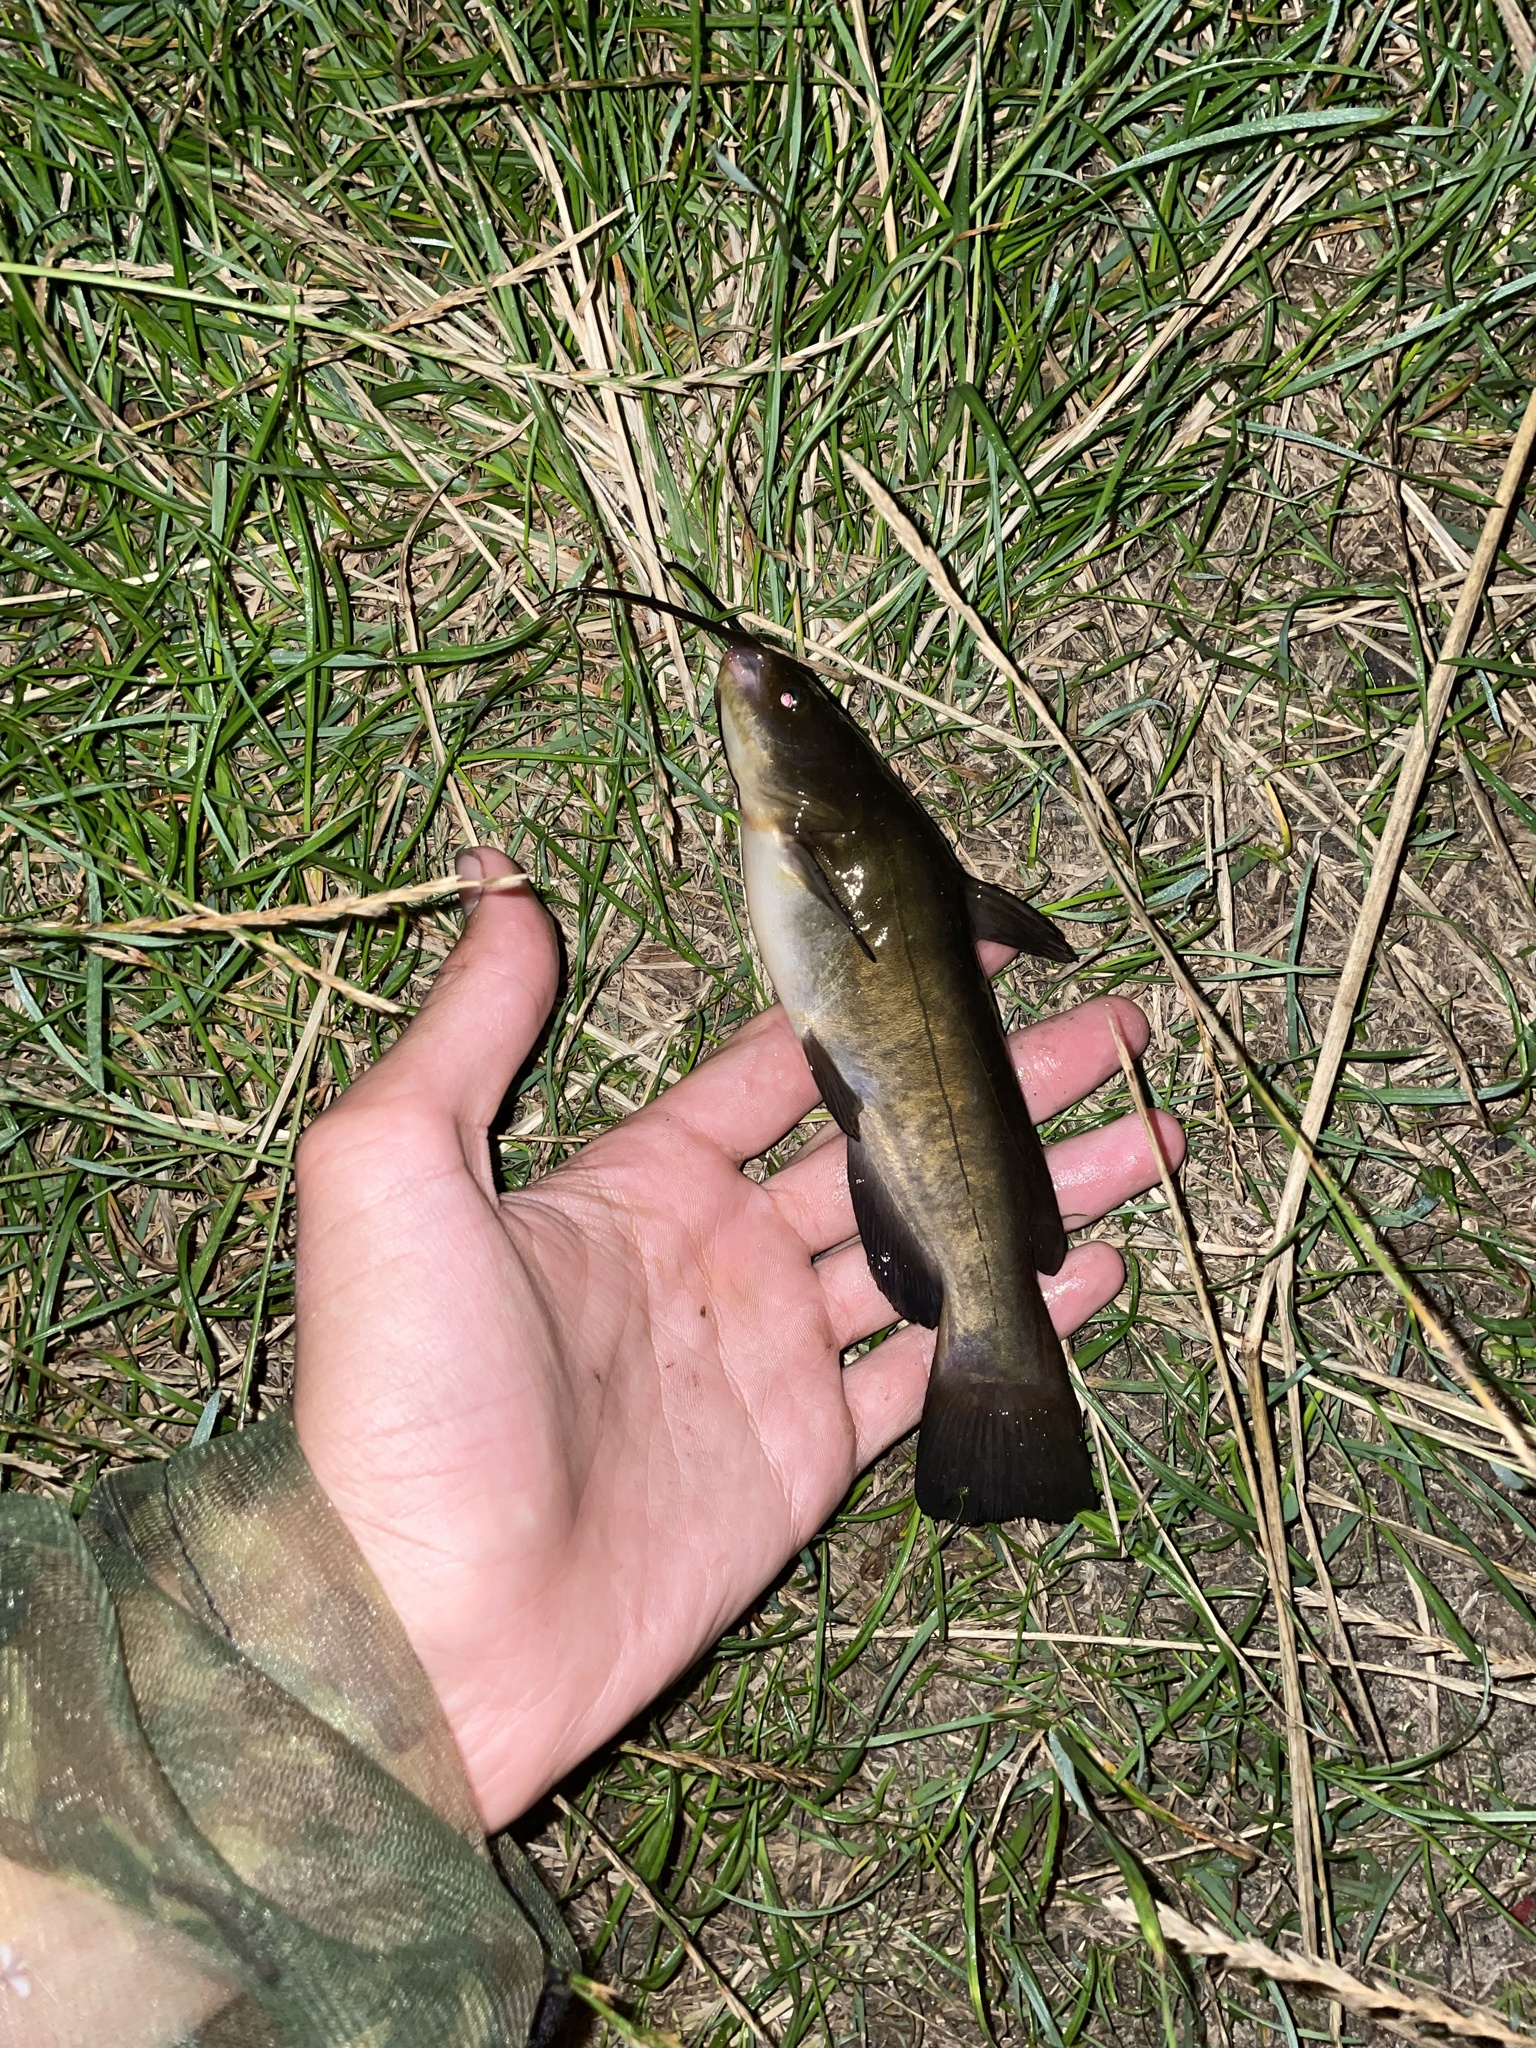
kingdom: Animalia
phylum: Chordata
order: Siluriformes
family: Ictaluridae
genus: Ameiurus
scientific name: Ameiurus nebulosus
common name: Brown bullhead
